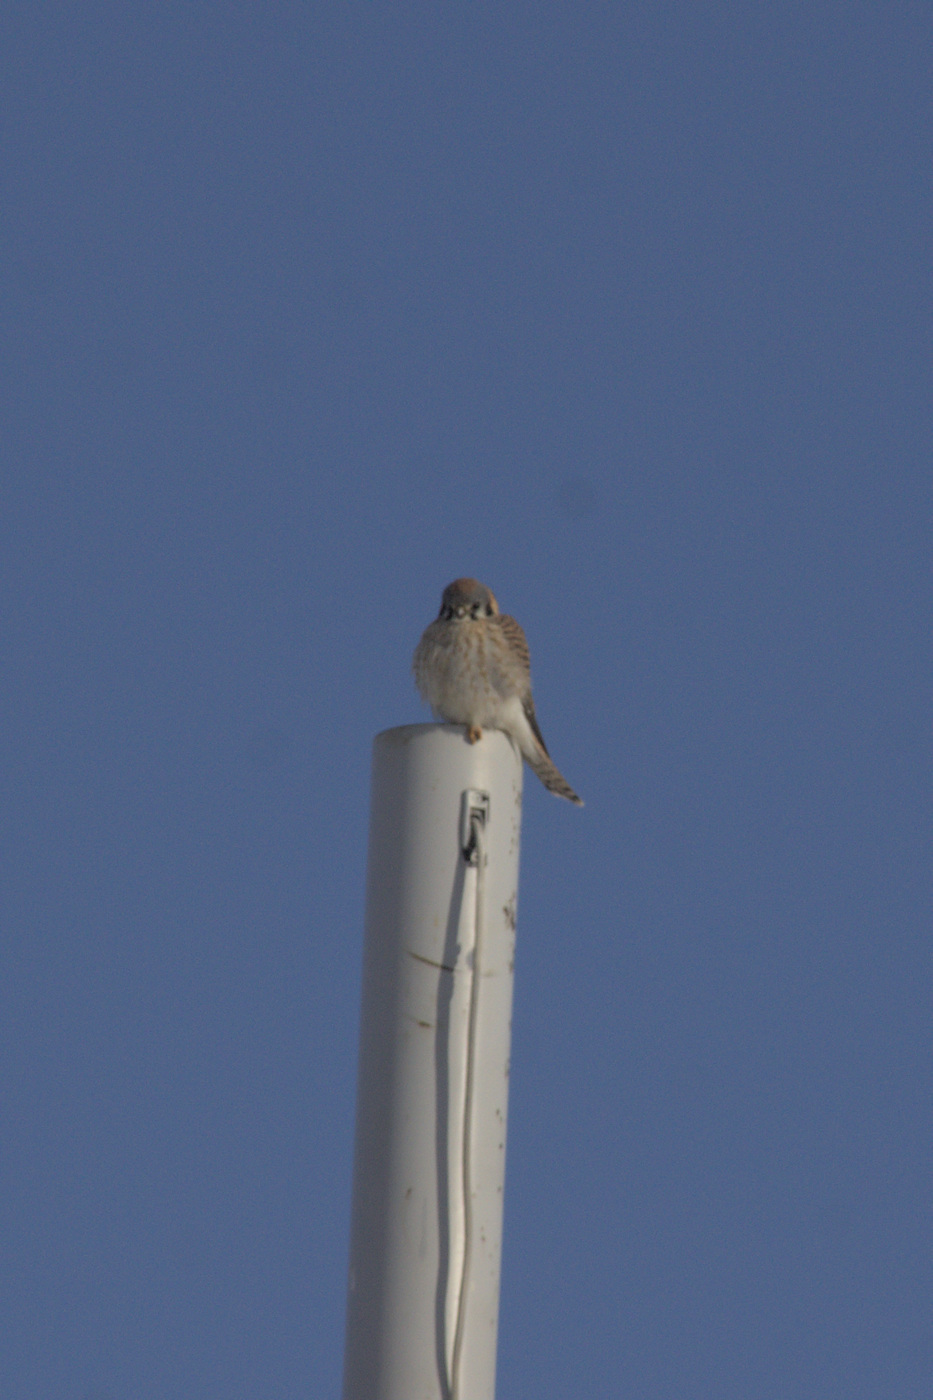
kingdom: Animalia
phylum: Chordata
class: Aves
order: Falconiformes
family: Falconidae
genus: Falco
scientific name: Falco sparverius
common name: American kestrel
